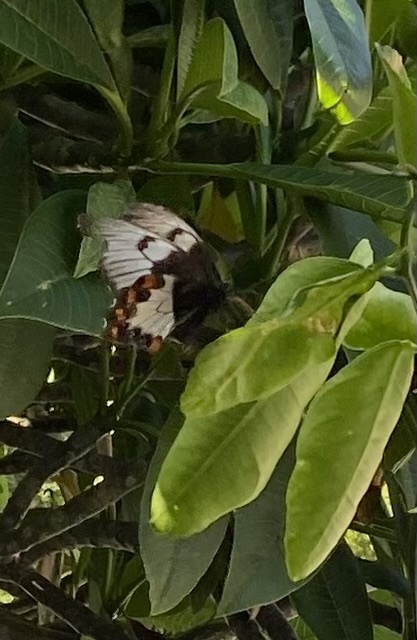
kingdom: Animalia
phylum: Arthropoda
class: Insecta
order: Lepidoptera
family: Papilionidae
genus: Papilio
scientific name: Papilio aegeus
